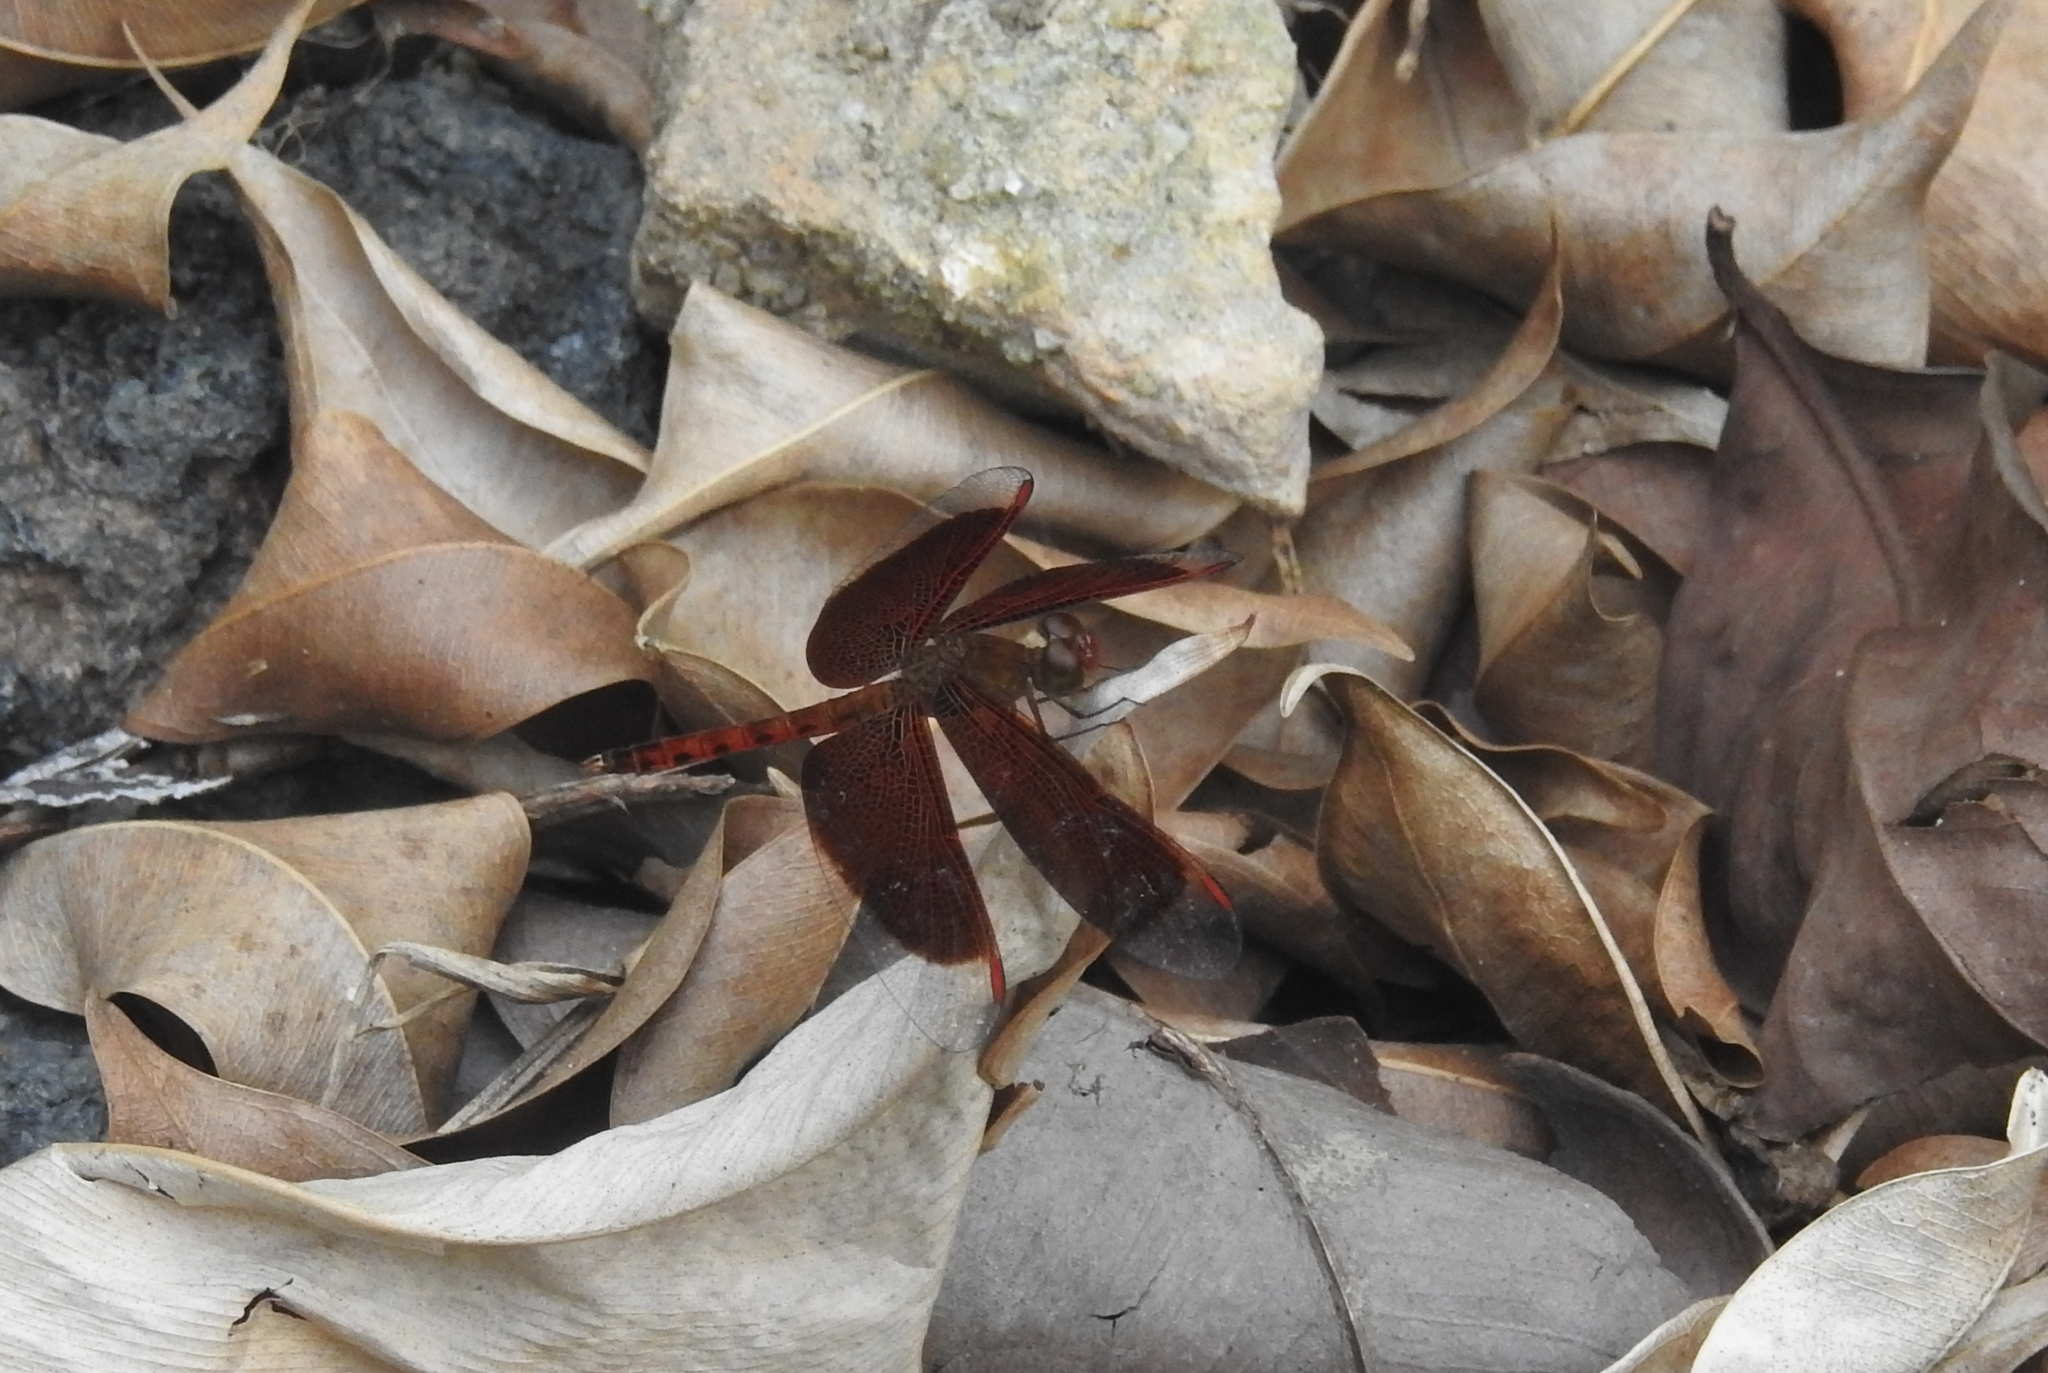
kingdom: Animalia
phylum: Arthropoda
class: Insecta
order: Odonata
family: Libellulidae
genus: Neurothemis
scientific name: Neurothemis fluctuans
